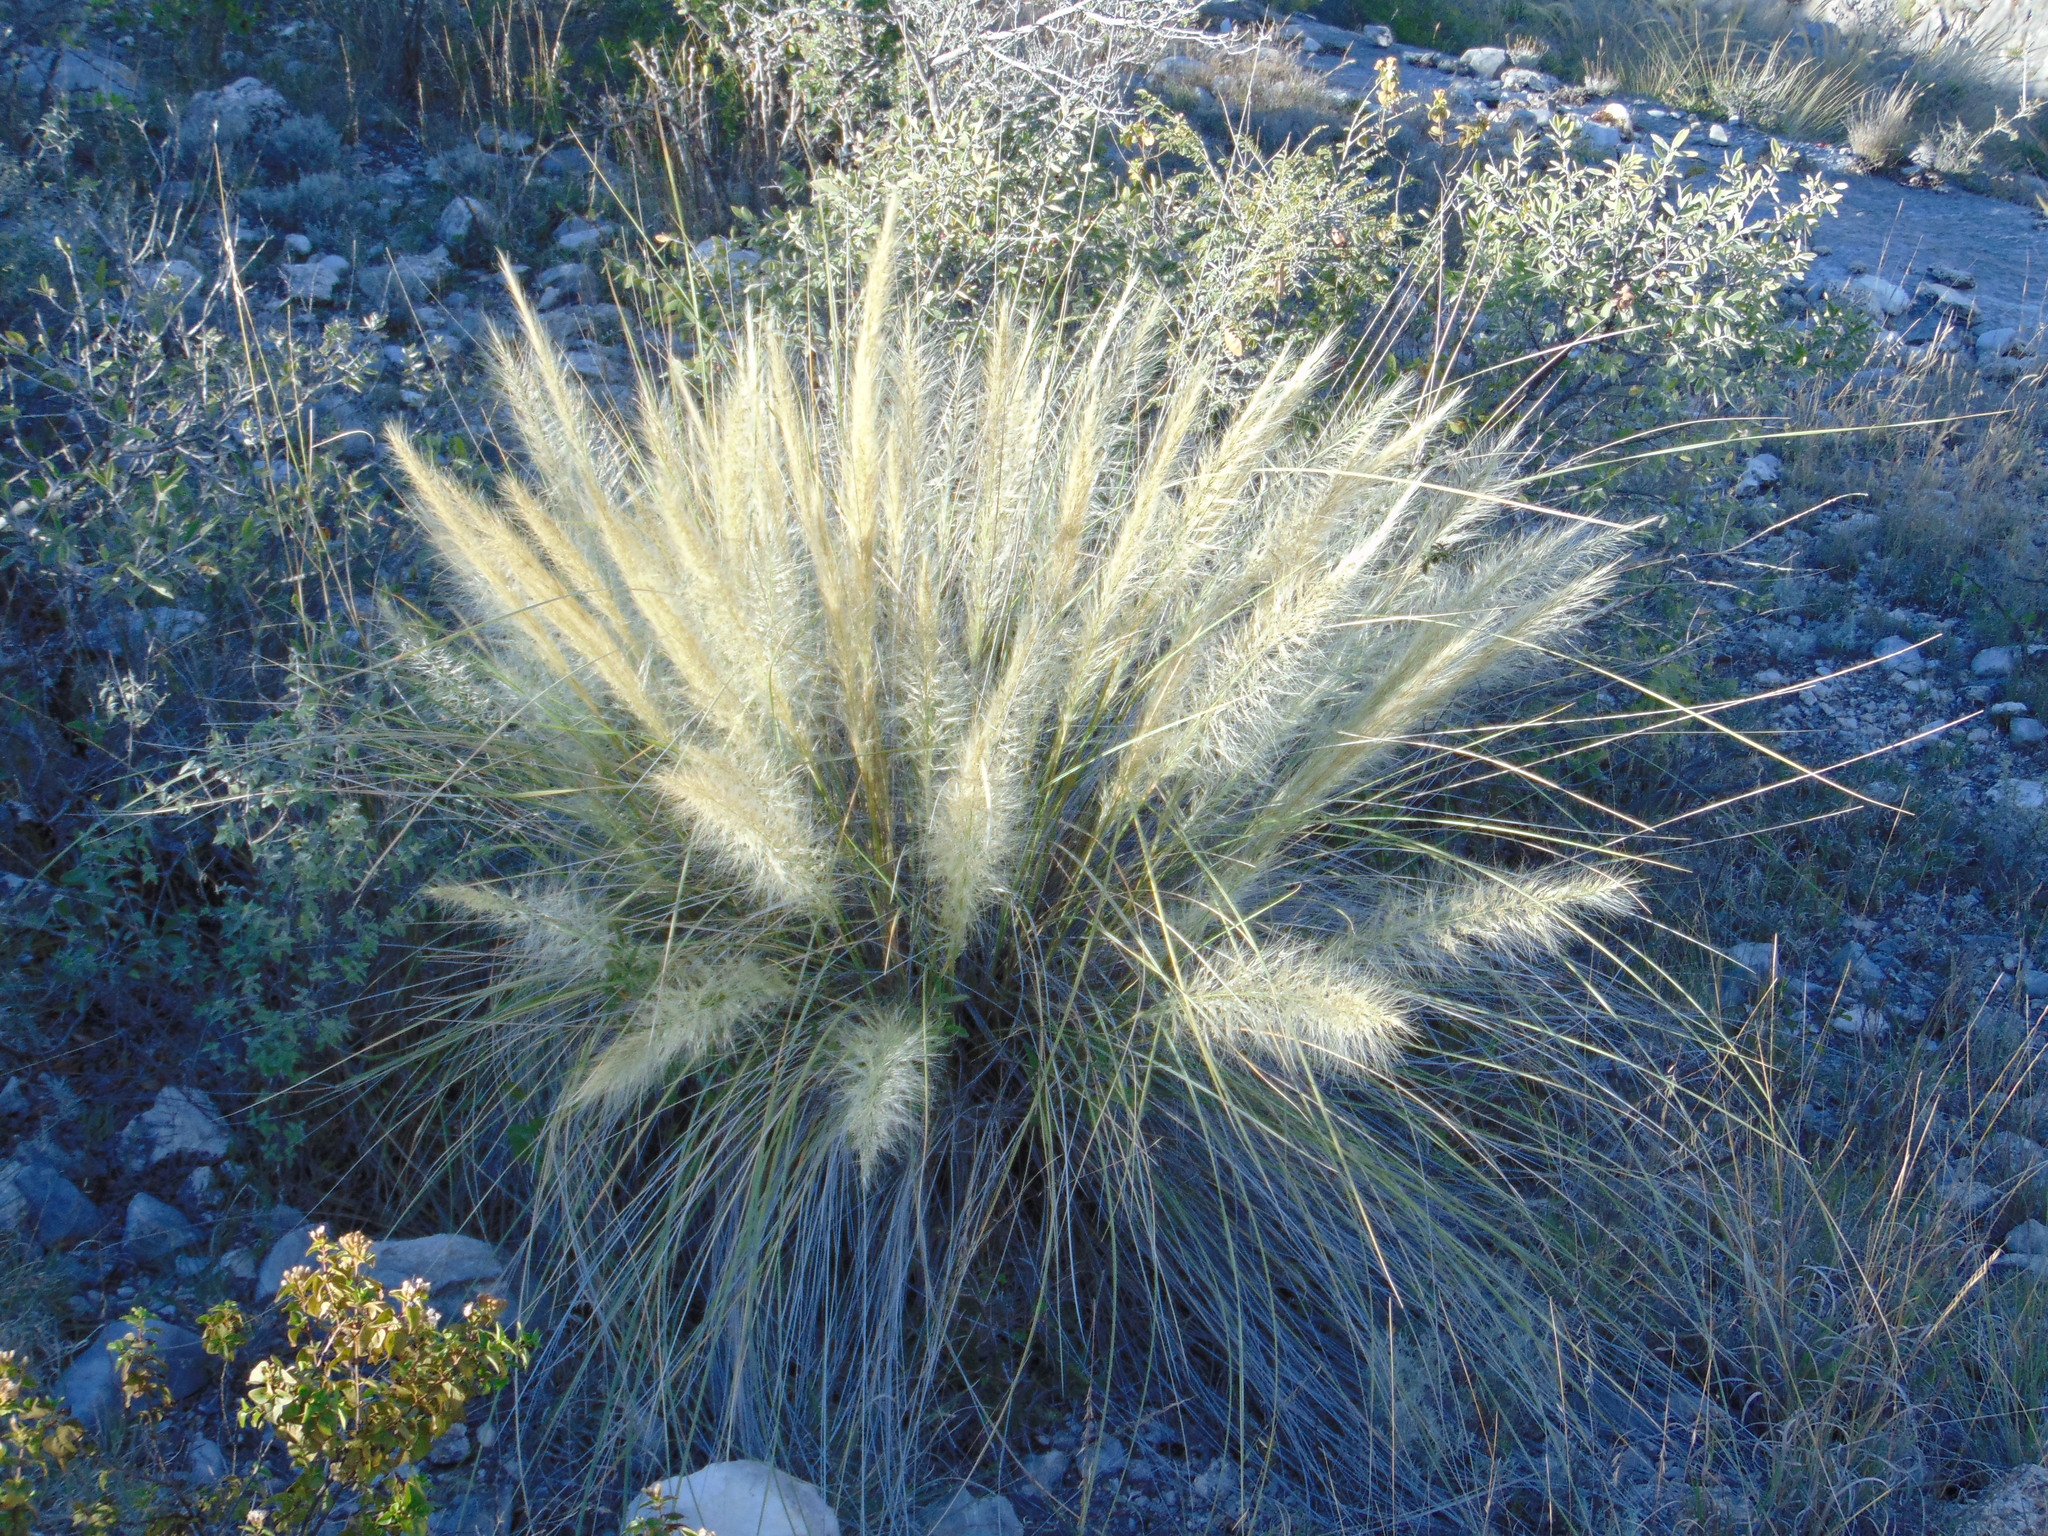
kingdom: Plantae
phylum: Tracheophyta
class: Liliopsida
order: Poales
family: Poaceae
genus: Cenchrus
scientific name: Cenchrus setaceus
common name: Crimson fountaingrass
